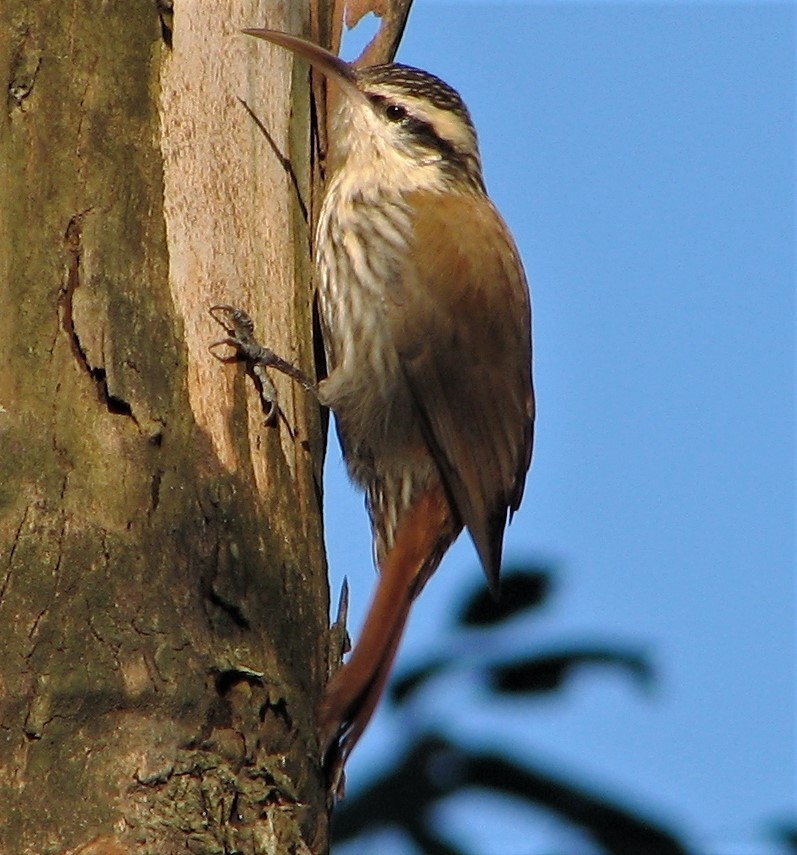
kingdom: Animalia
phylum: Chordata
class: Aves
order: Passeriformes
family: Furnariidae
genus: Lepidocolaptes
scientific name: Lepidocolaptes angustirostris
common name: Narrow-billed woodcreeper
